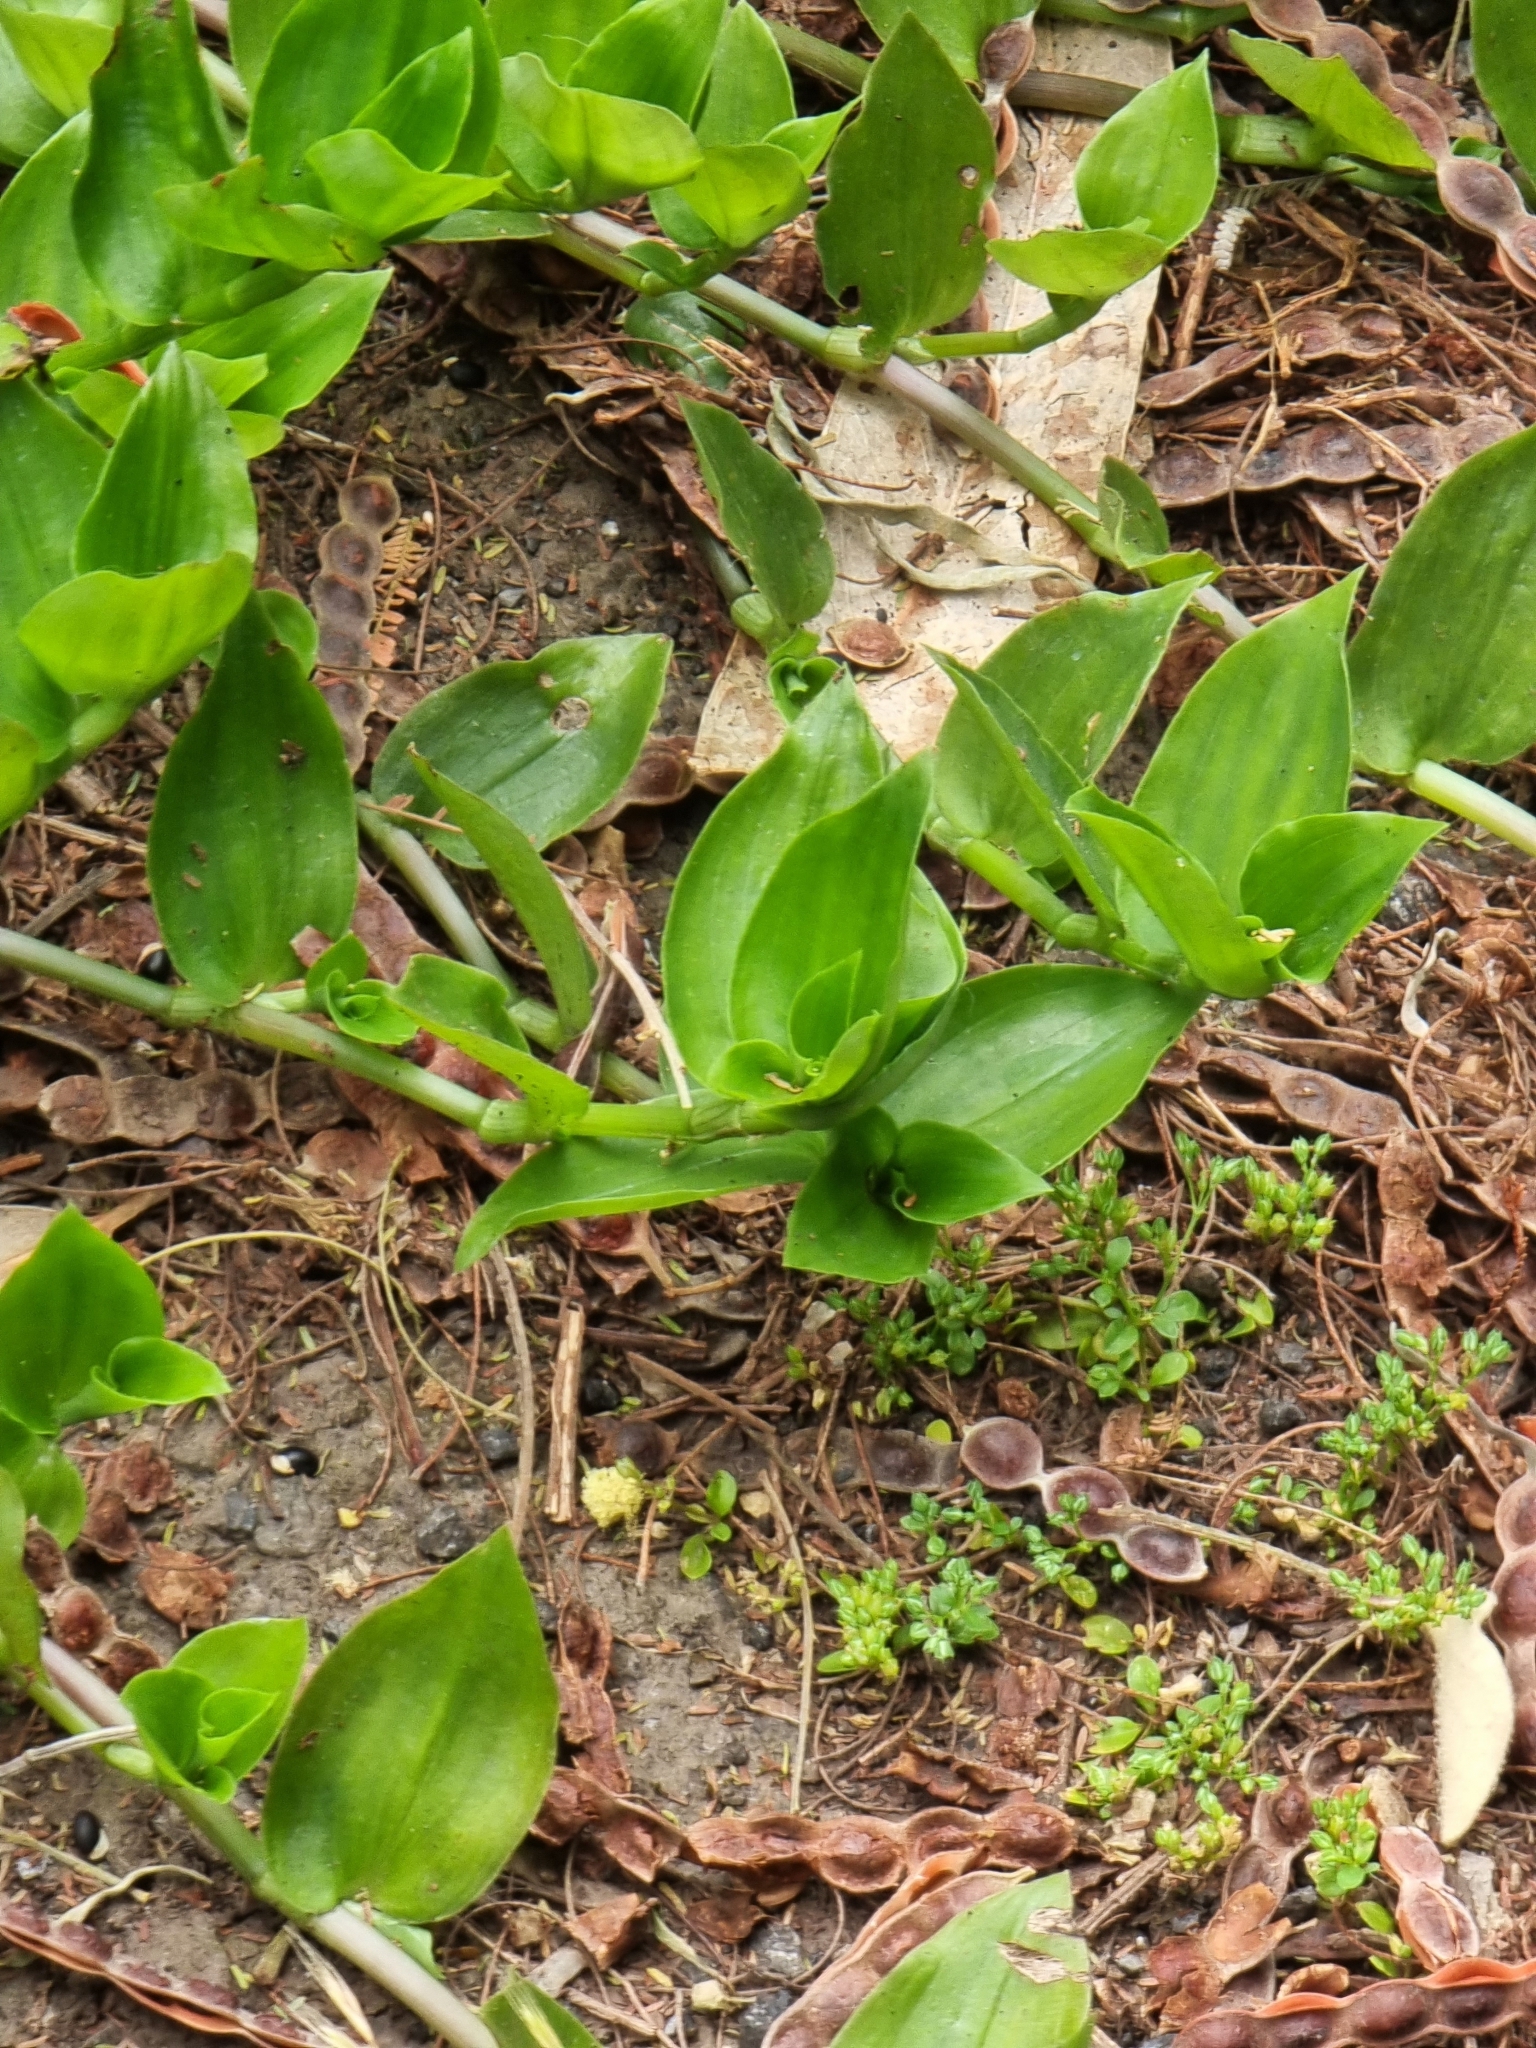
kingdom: Plantae
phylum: Tracheophyta
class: Liliopsida
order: Commelinales
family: Commelinaceae
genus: Tradescantia
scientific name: Tradescantia fluminensis
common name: Wandering-jew
